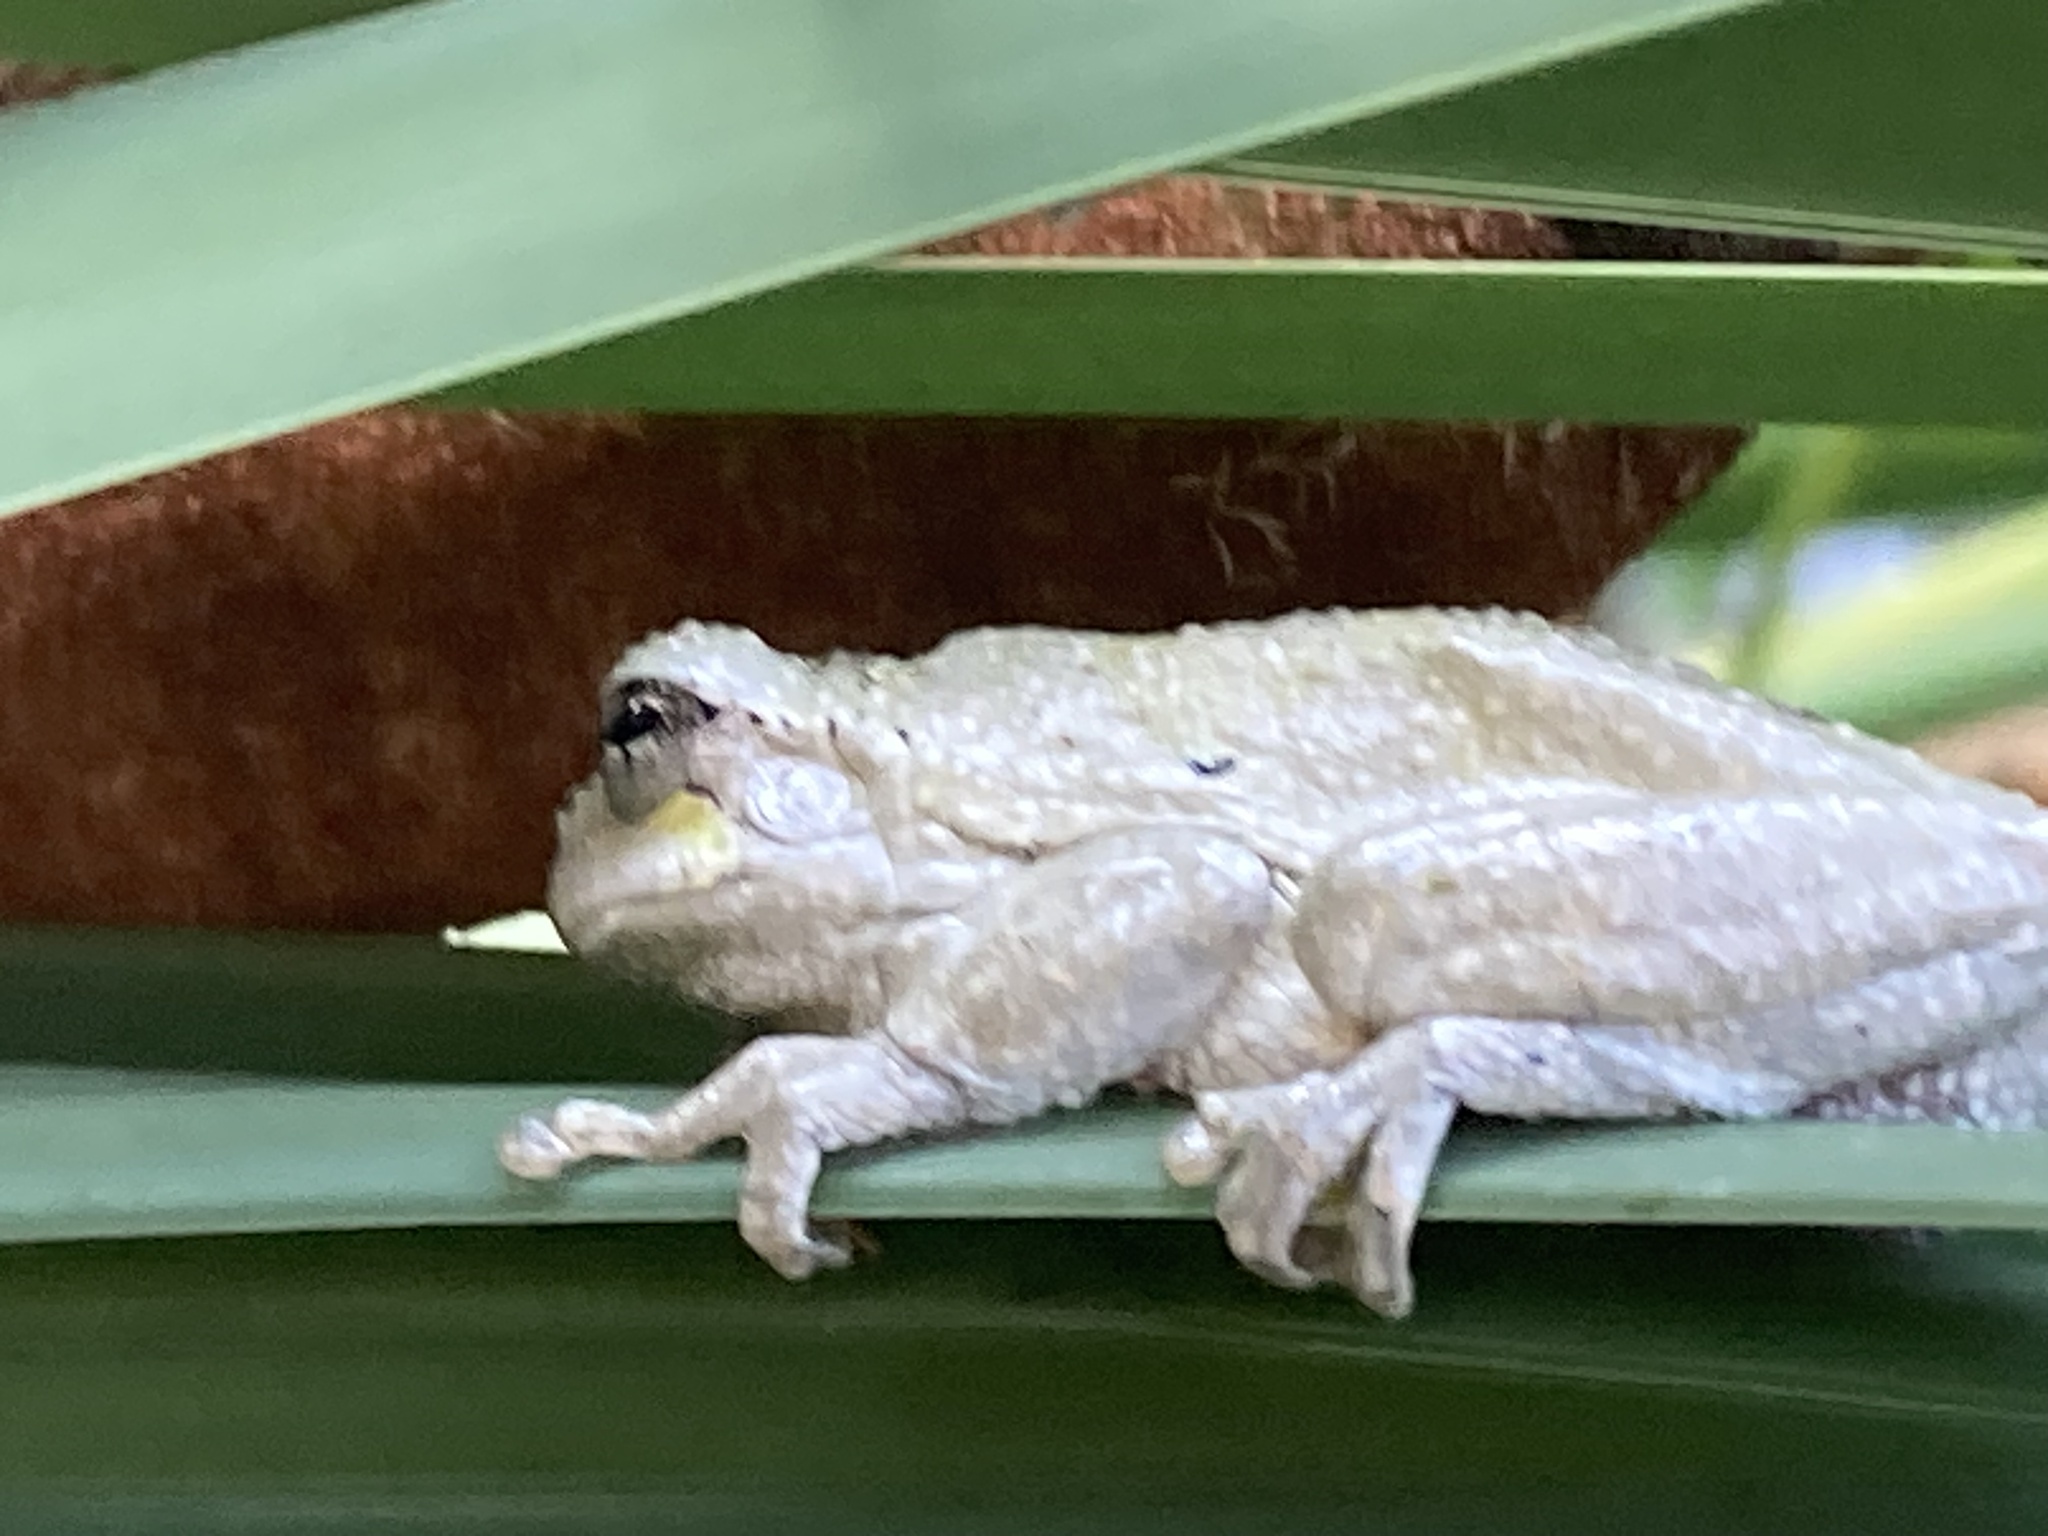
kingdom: Animalia
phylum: Chordata
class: Amphibia
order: Anura
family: Hylidae
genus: Dryophytes
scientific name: Dryophytes chrysoscelis
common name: Cope's gray treefrog
